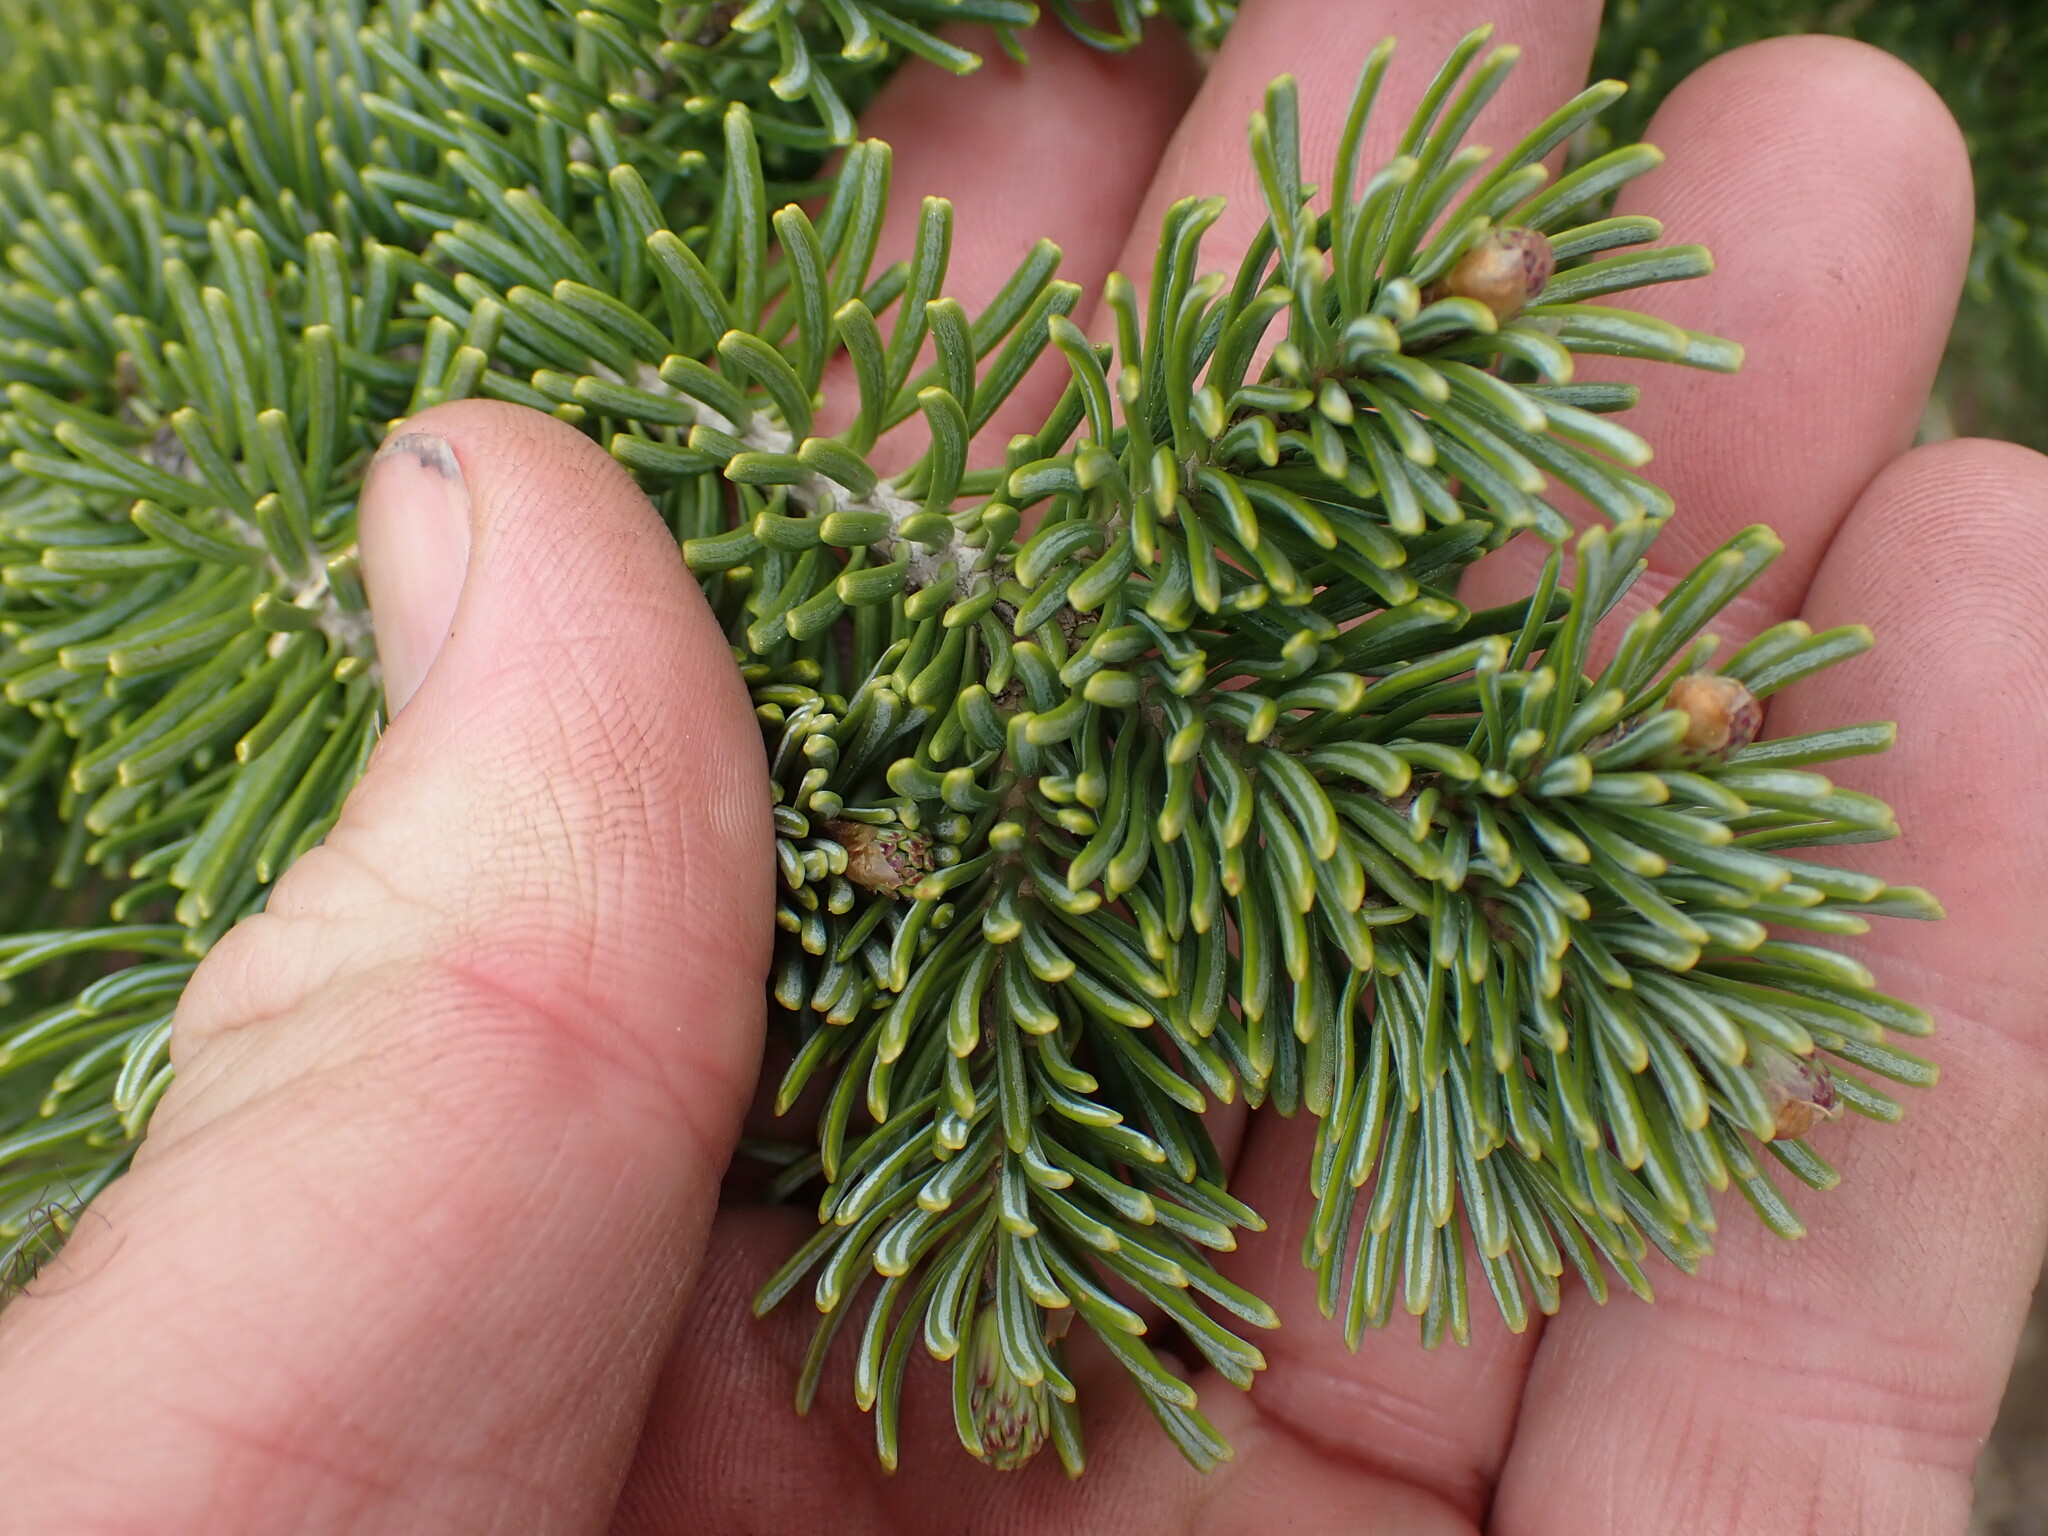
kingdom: Plantae
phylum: Tracheophyta
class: Pinopsida
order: Pinales
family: Pinaceae
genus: Abies
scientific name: Abies lasiocarpa
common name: Subalpine fir
